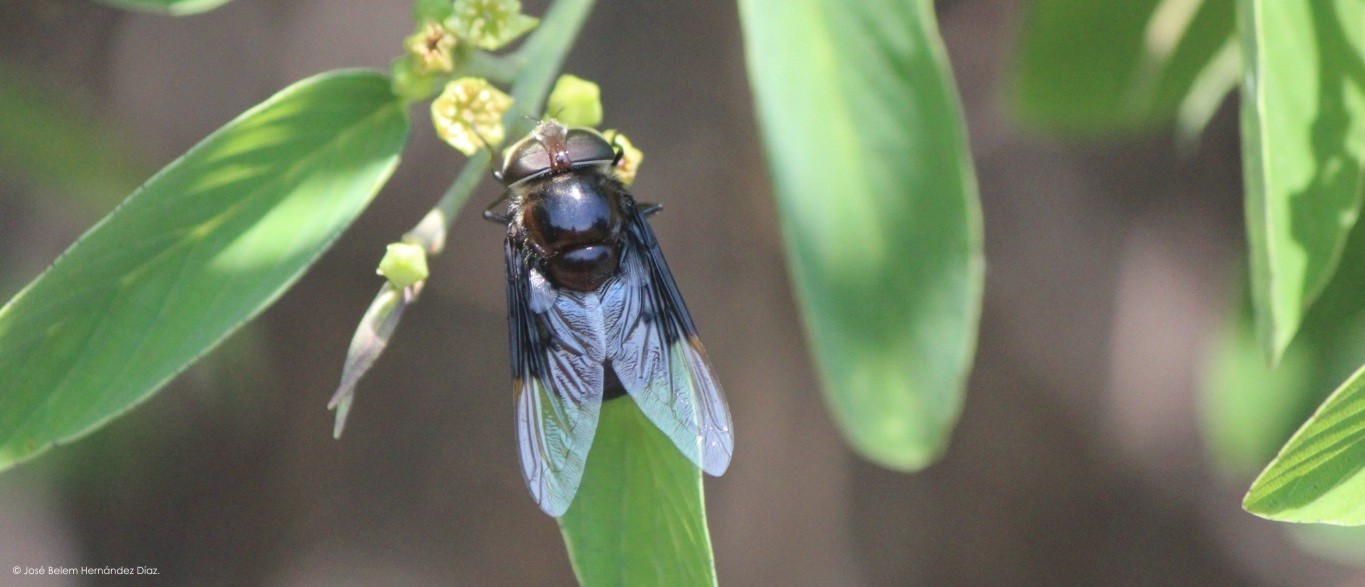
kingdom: Animalia
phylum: Arthropoda
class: Insecta
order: Diptera
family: Syrphidae
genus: Copestylum
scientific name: Copestylum violaceum
